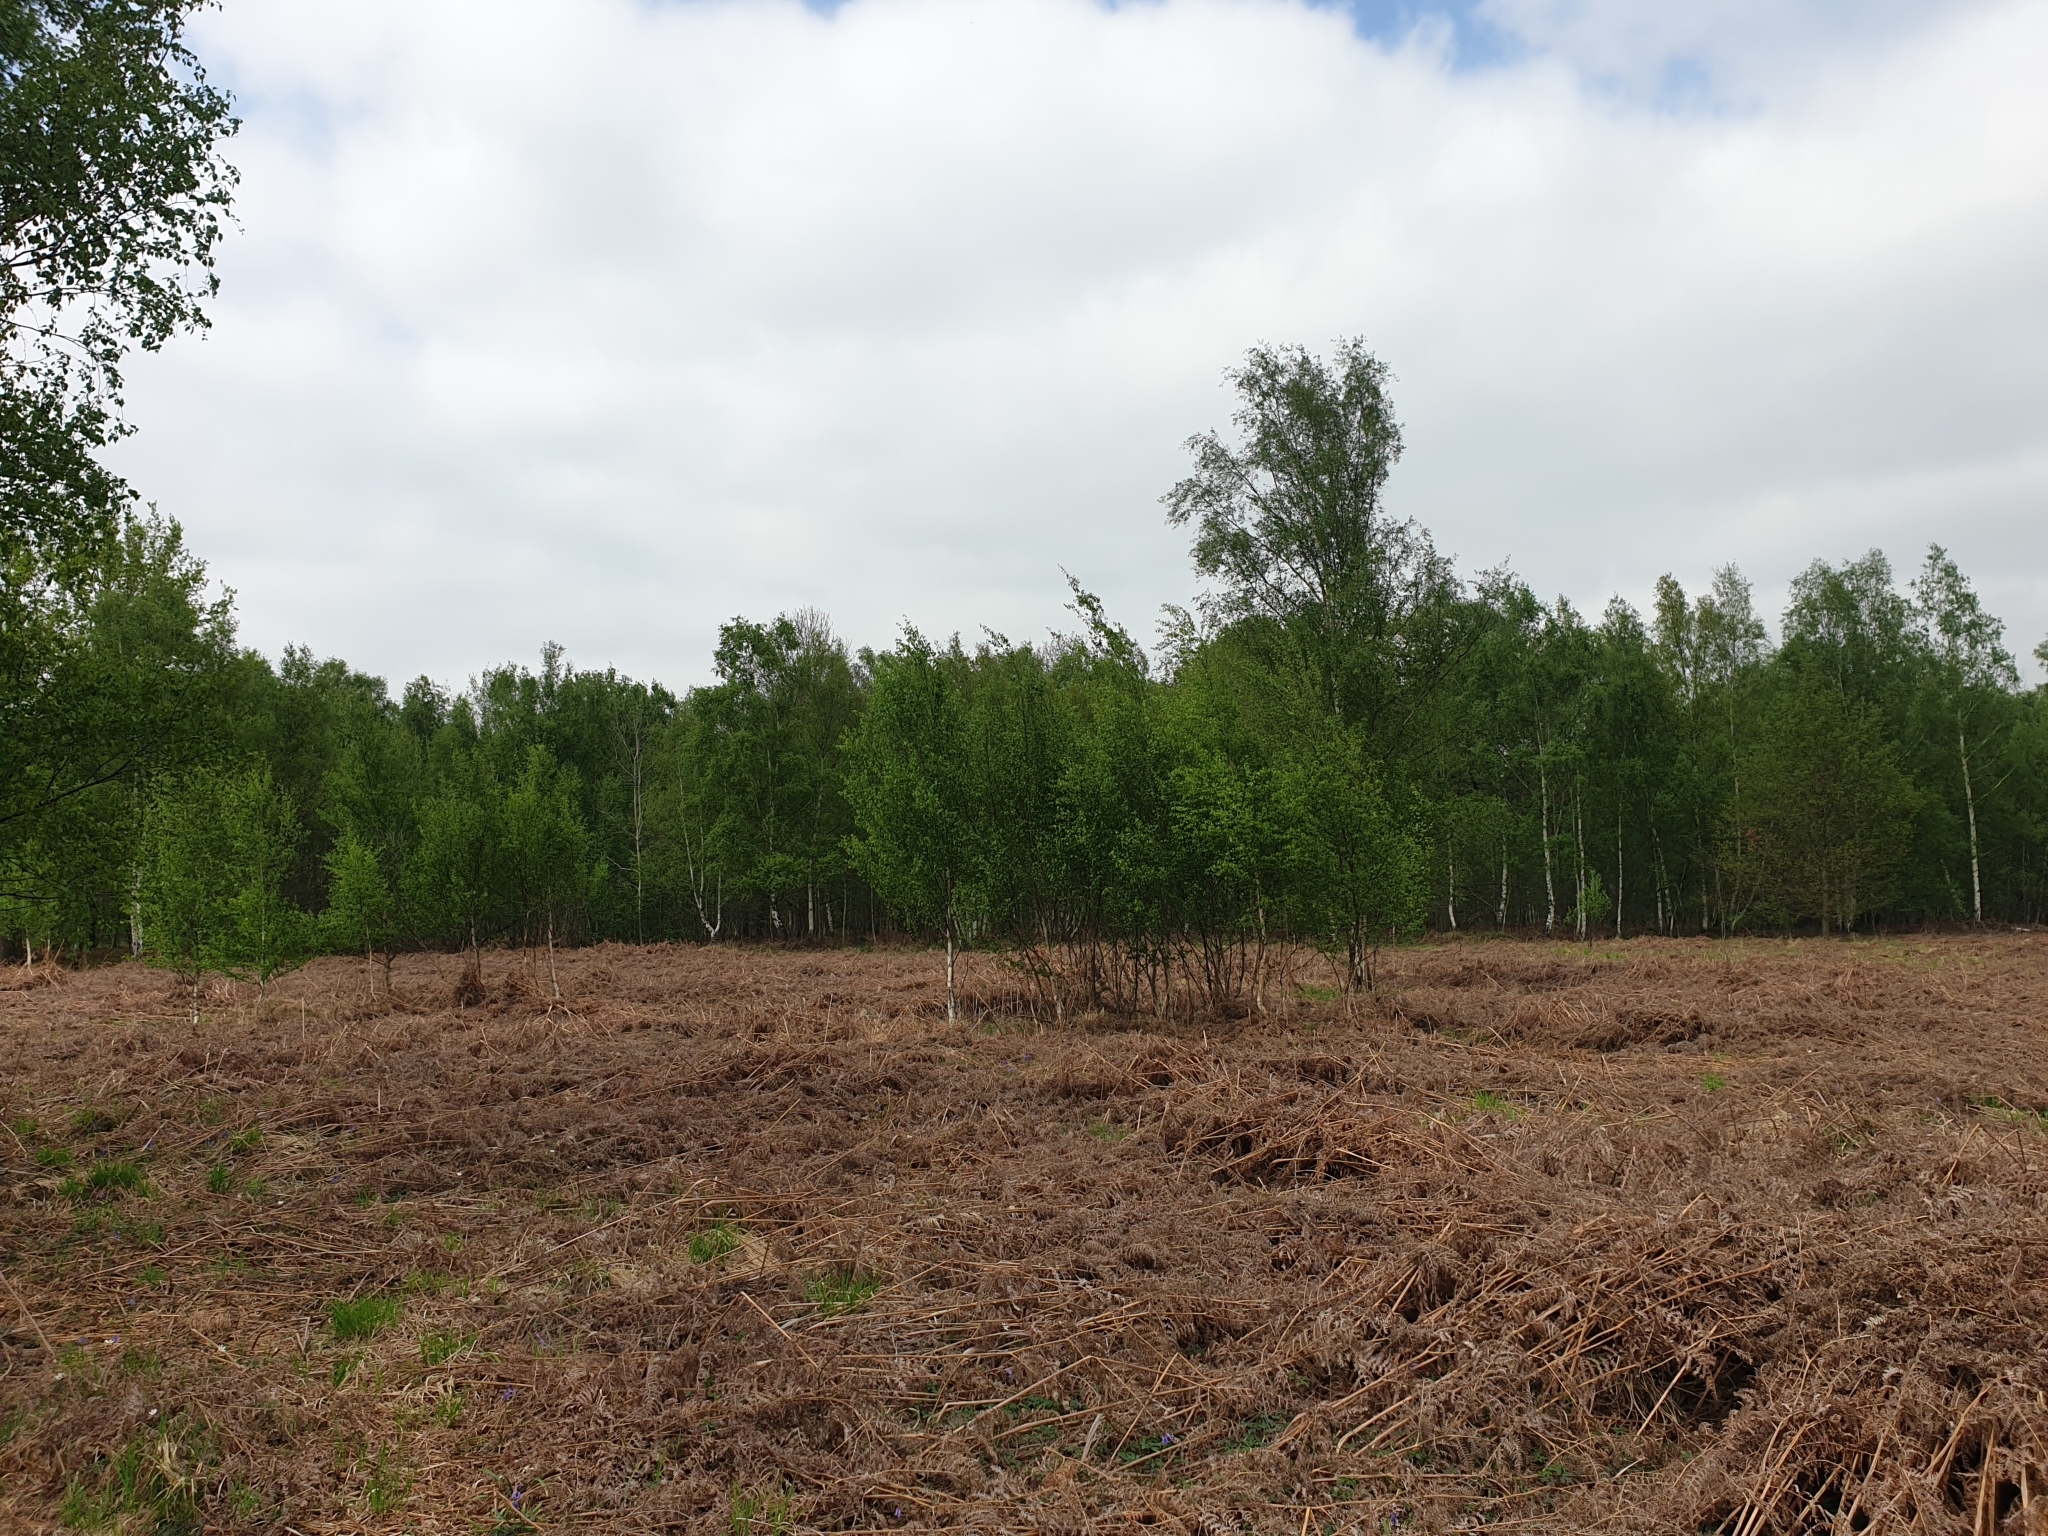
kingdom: Plantae
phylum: Tracheophyta
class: Magnoliopsida
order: Fagales
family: Betulaceae
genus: Betula
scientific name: Betula pubescens
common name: Downy birch
